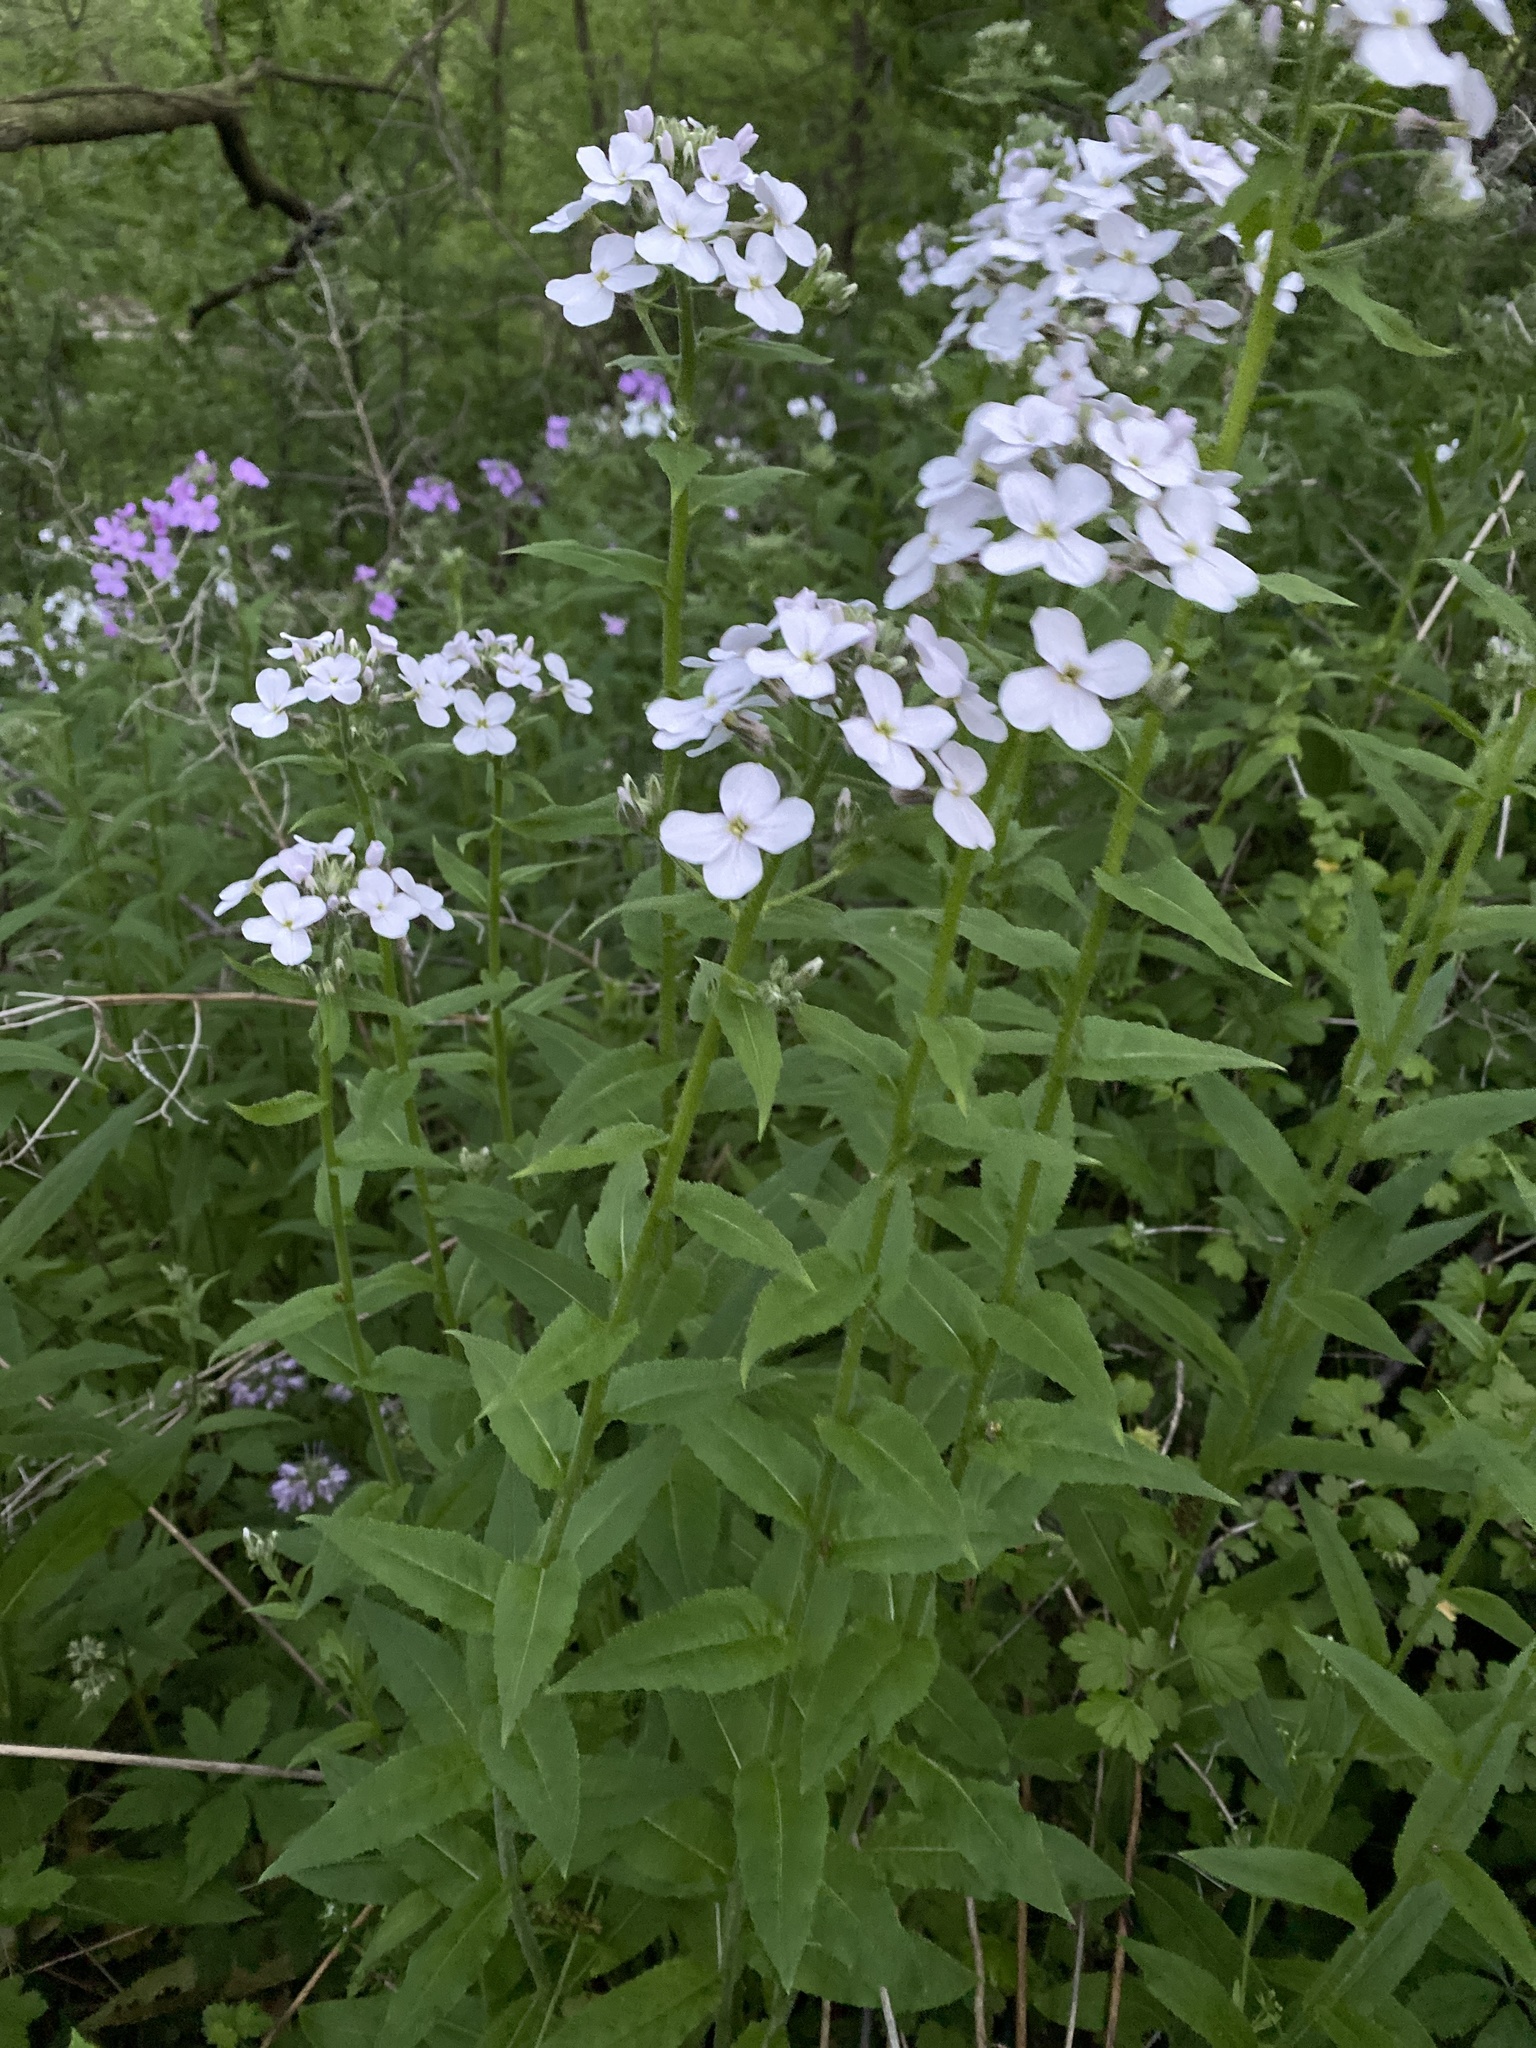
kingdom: Plantae
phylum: Tracheophyta
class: Magnoliopsida
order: Brassicales
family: Brassicaceae
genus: Hesperis
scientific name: Hesperis matronalis
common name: Dame's-violet
